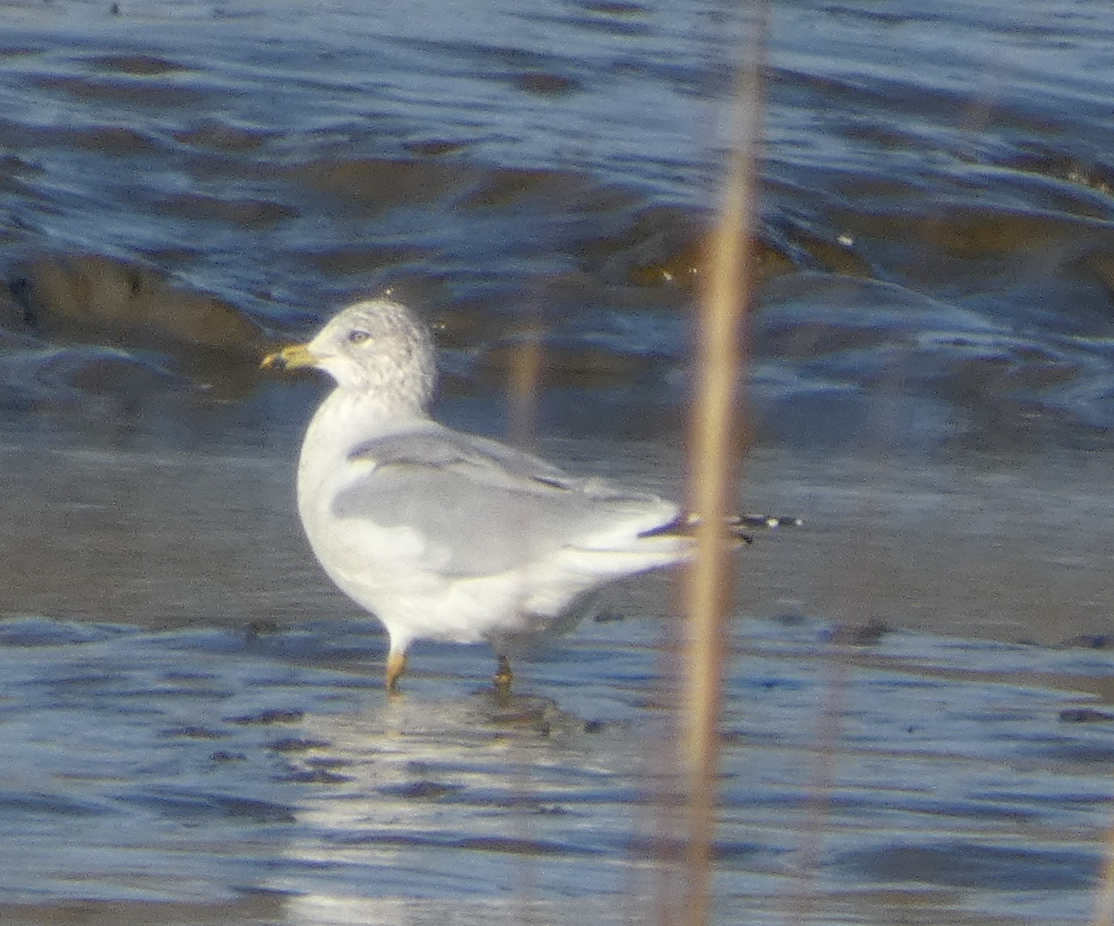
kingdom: Animalia
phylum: Chordata
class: Aves
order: Charadriiformes
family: Laridae
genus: Larus
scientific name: Larus delawarensis
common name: Ring-billed gull
